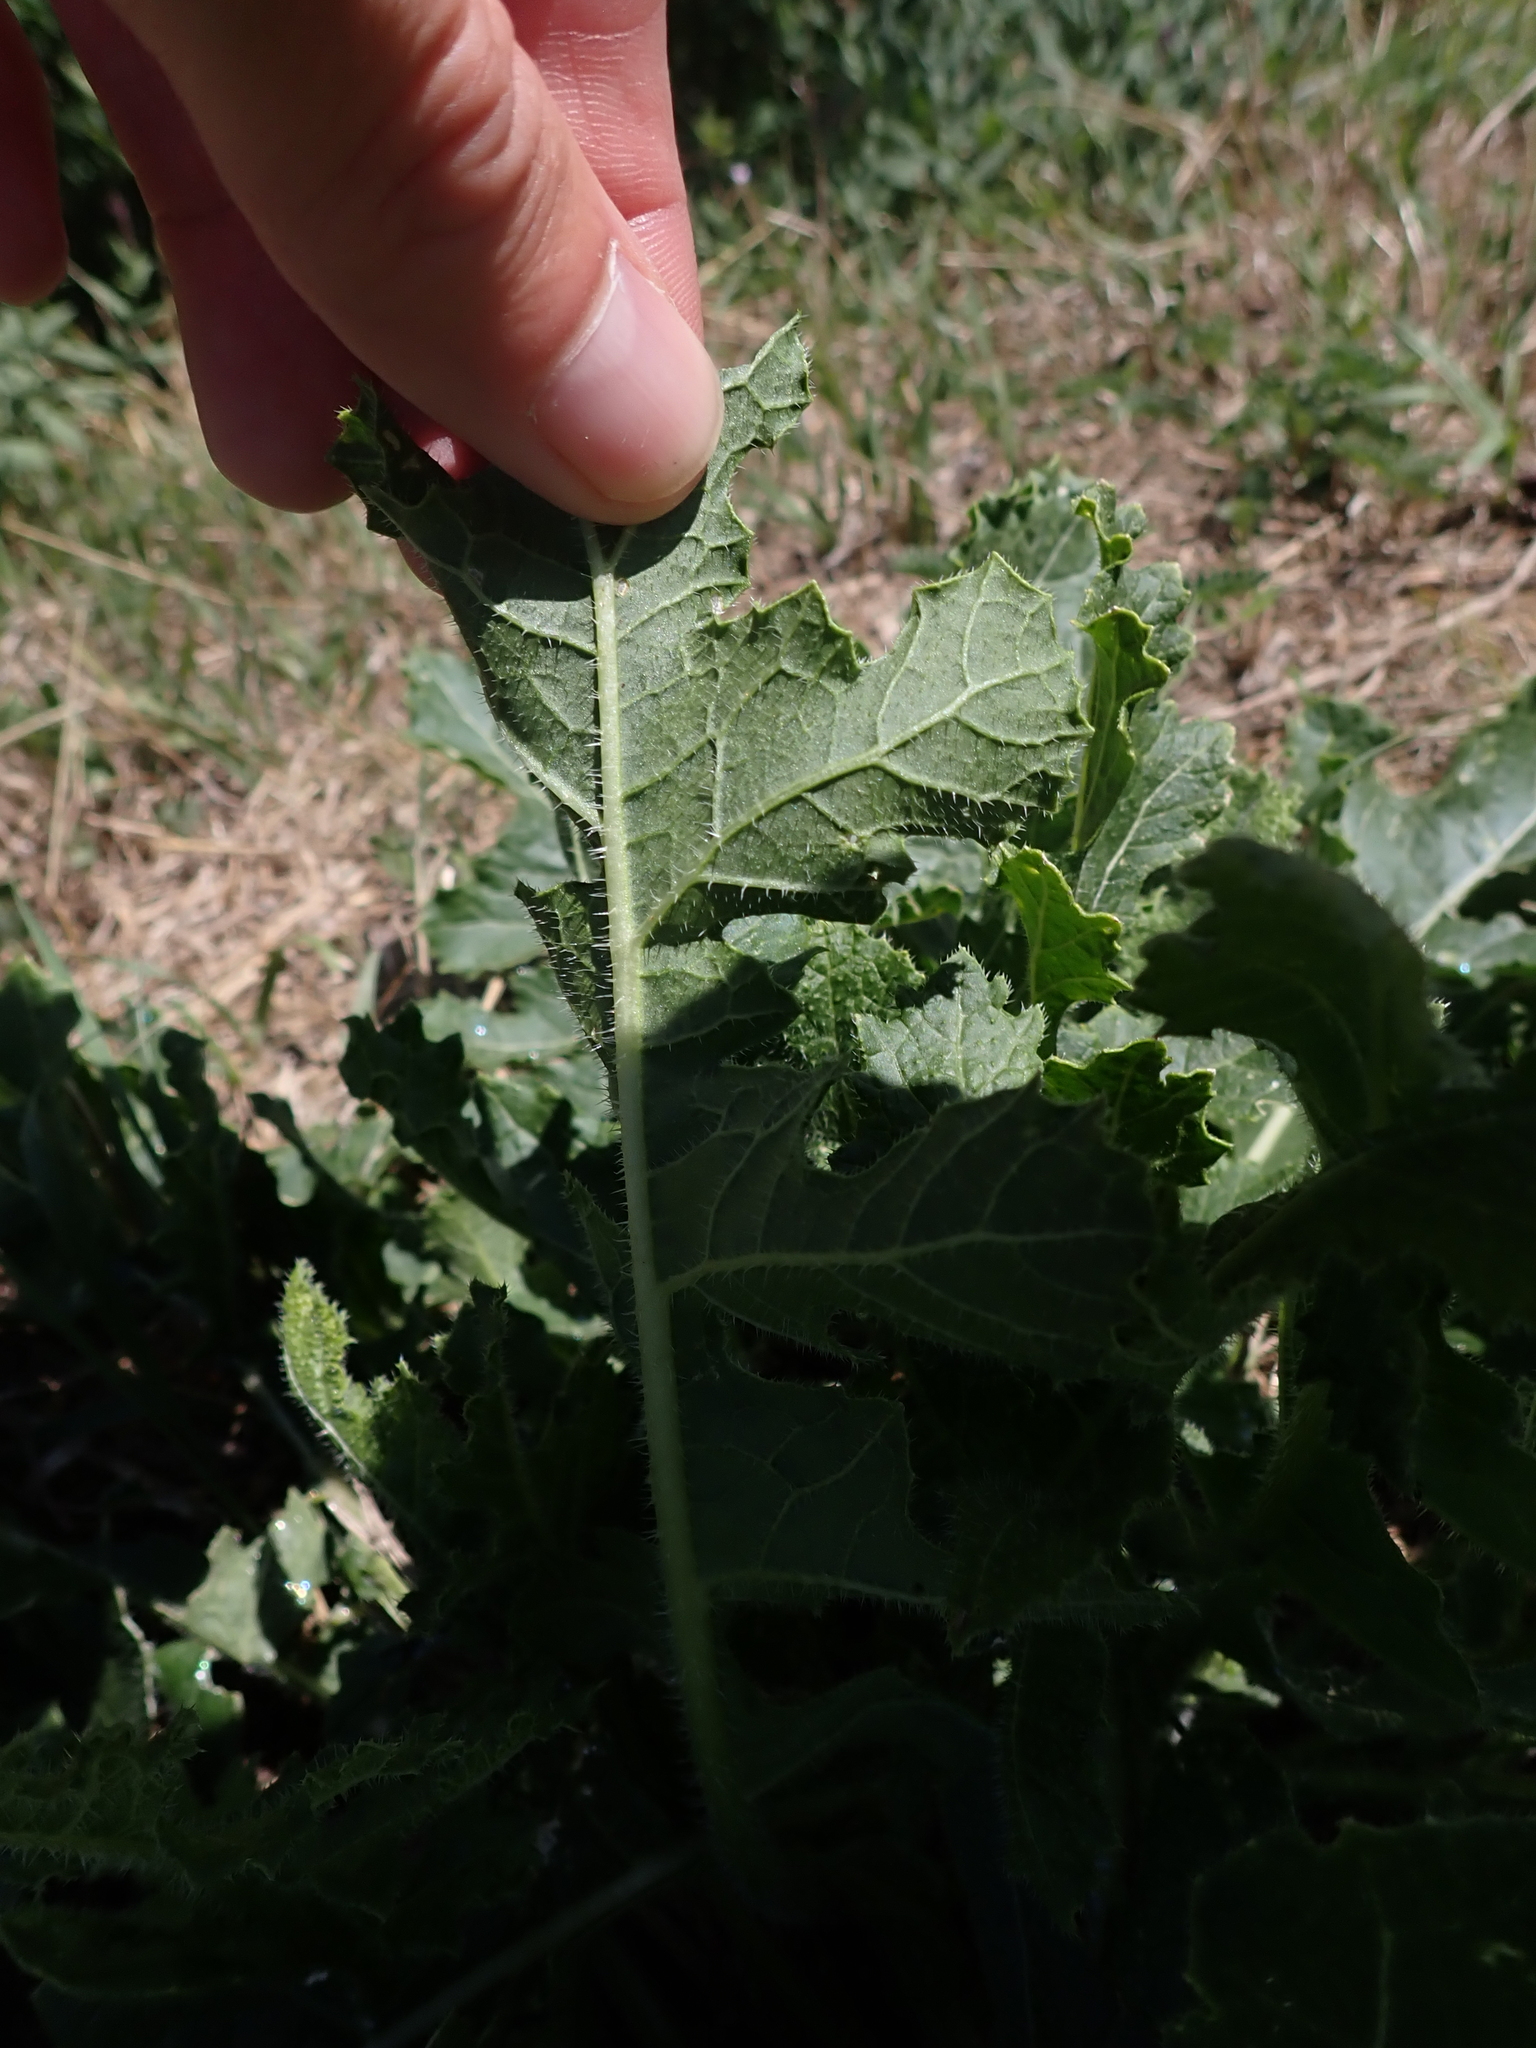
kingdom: Plantae
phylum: Tracheophyta
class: Magnoliopsida
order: Brassicales
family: Brassicaceae
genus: Rapistrum
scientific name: Rapistrum perenne
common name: Steppe cabbage
